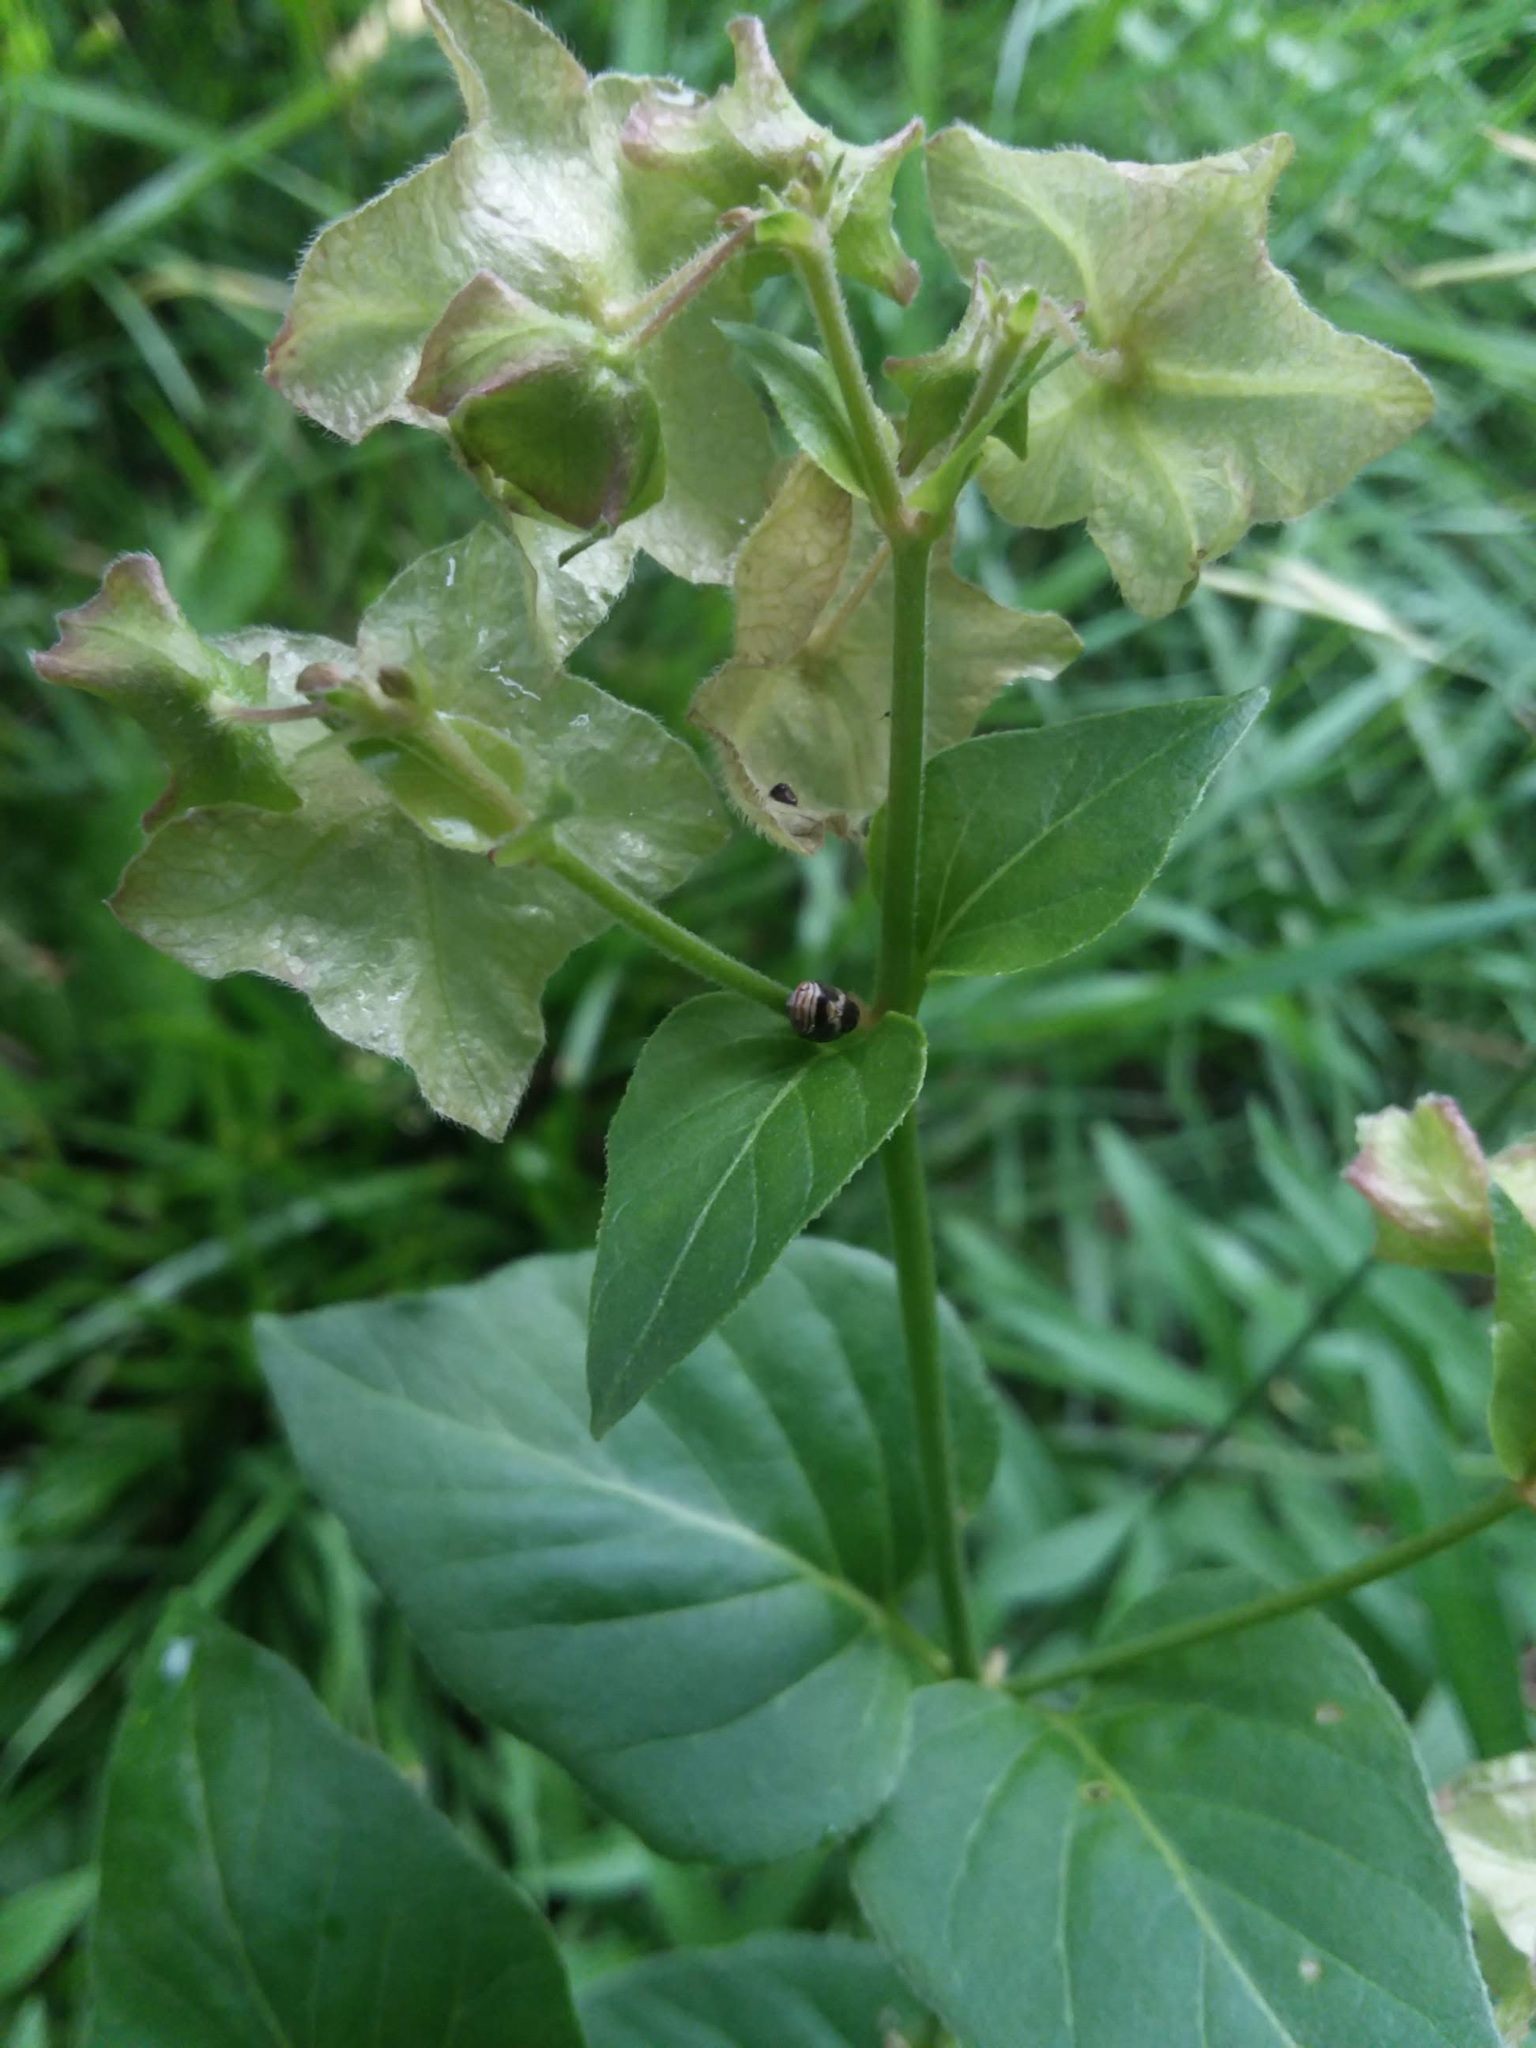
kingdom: Plantae
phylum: Tracheophyta
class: Magnoliopsida
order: Caryophyllales
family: Nyctaginaceae
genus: Mirabilis
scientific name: Mirabilis nyctaginea
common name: Umbrella wort
